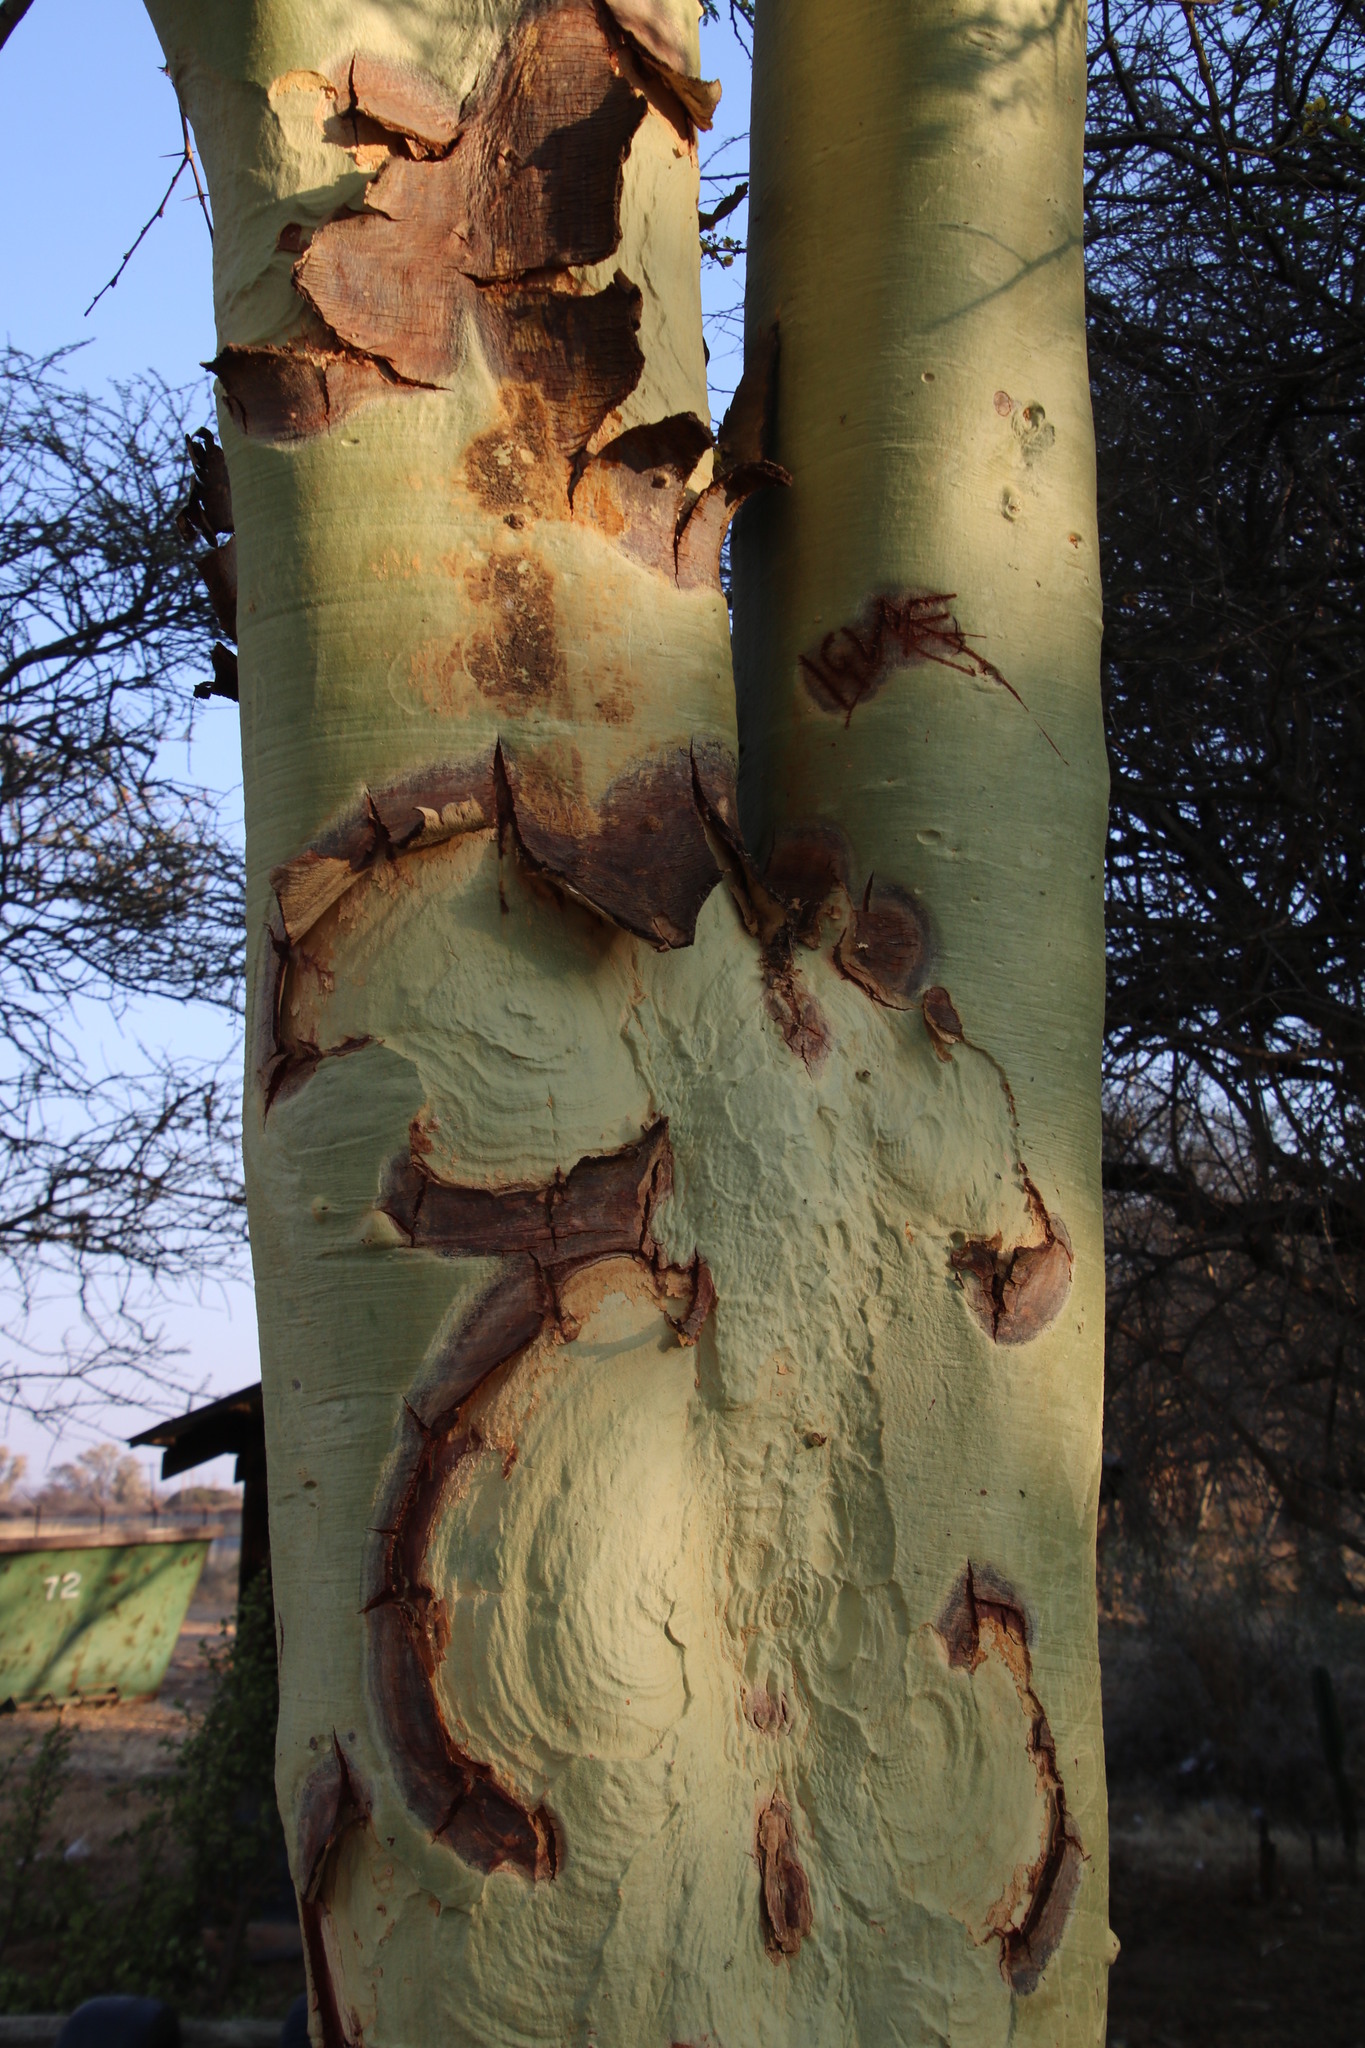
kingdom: Plantae
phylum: Tracheophyta
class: Magnoliopsida
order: Fabales
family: Fabaceae
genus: Vachellia
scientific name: Vachellia xanthophloea
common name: Fever tree
